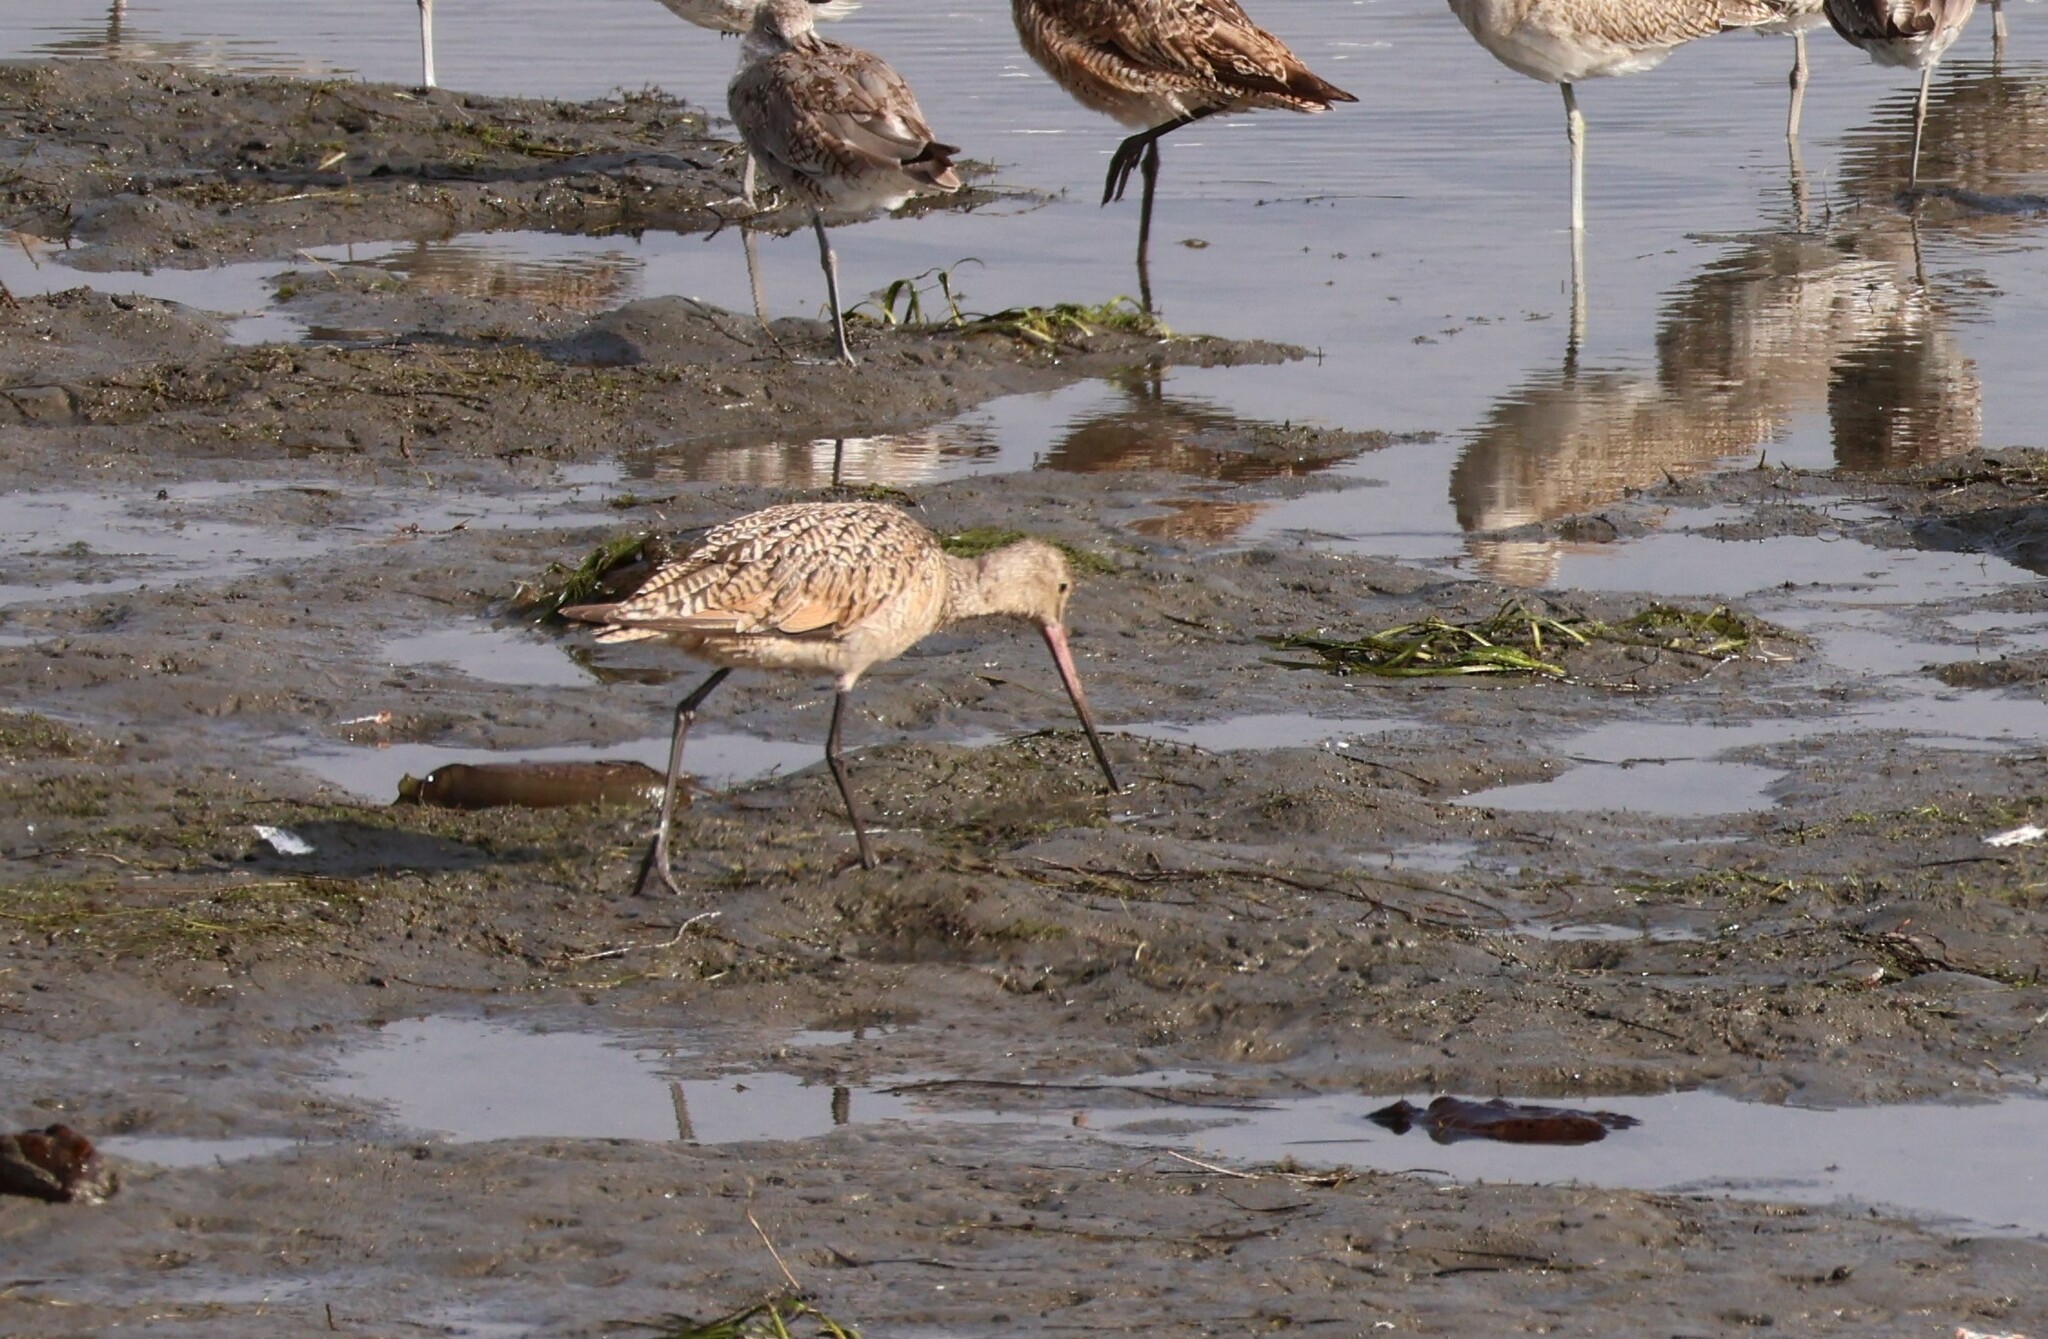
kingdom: Animalia
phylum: Chordata
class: Aves
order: Charadriiformes
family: Scolopacidae
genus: Limosa
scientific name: Limosa fedoa
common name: Marbled godwit
